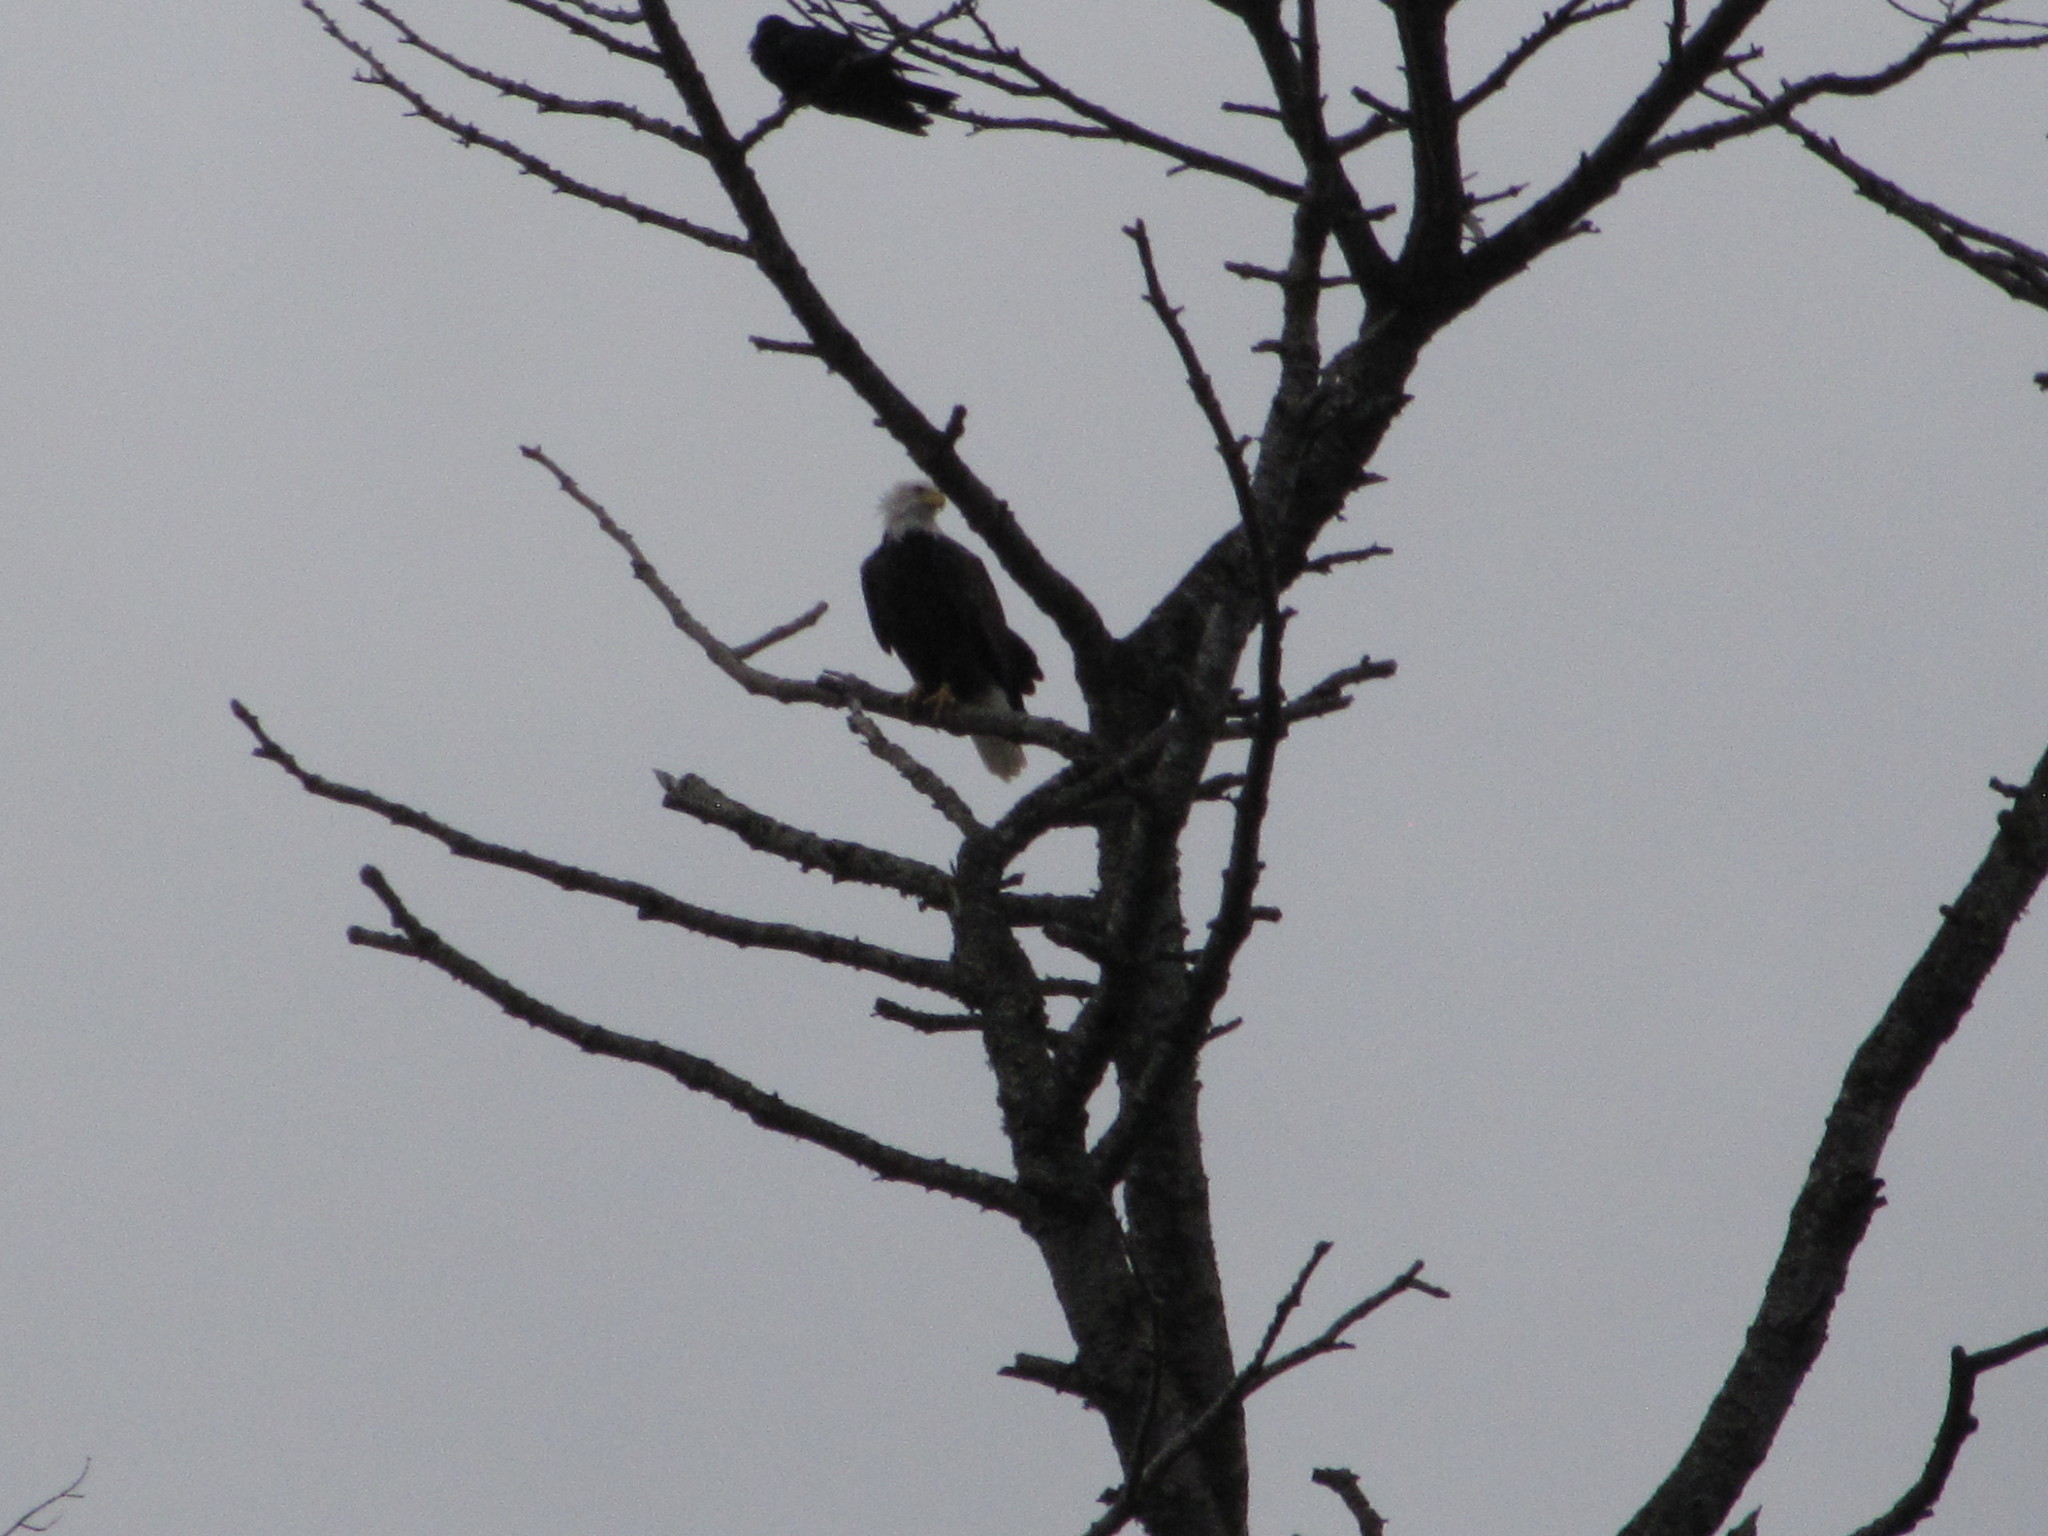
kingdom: Animalia
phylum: Chordata
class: Aves
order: Accipitriformes
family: Accipitridae
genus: Haliaeetus
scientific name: Haliaeetus leucocephalus
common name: Bald eagle
